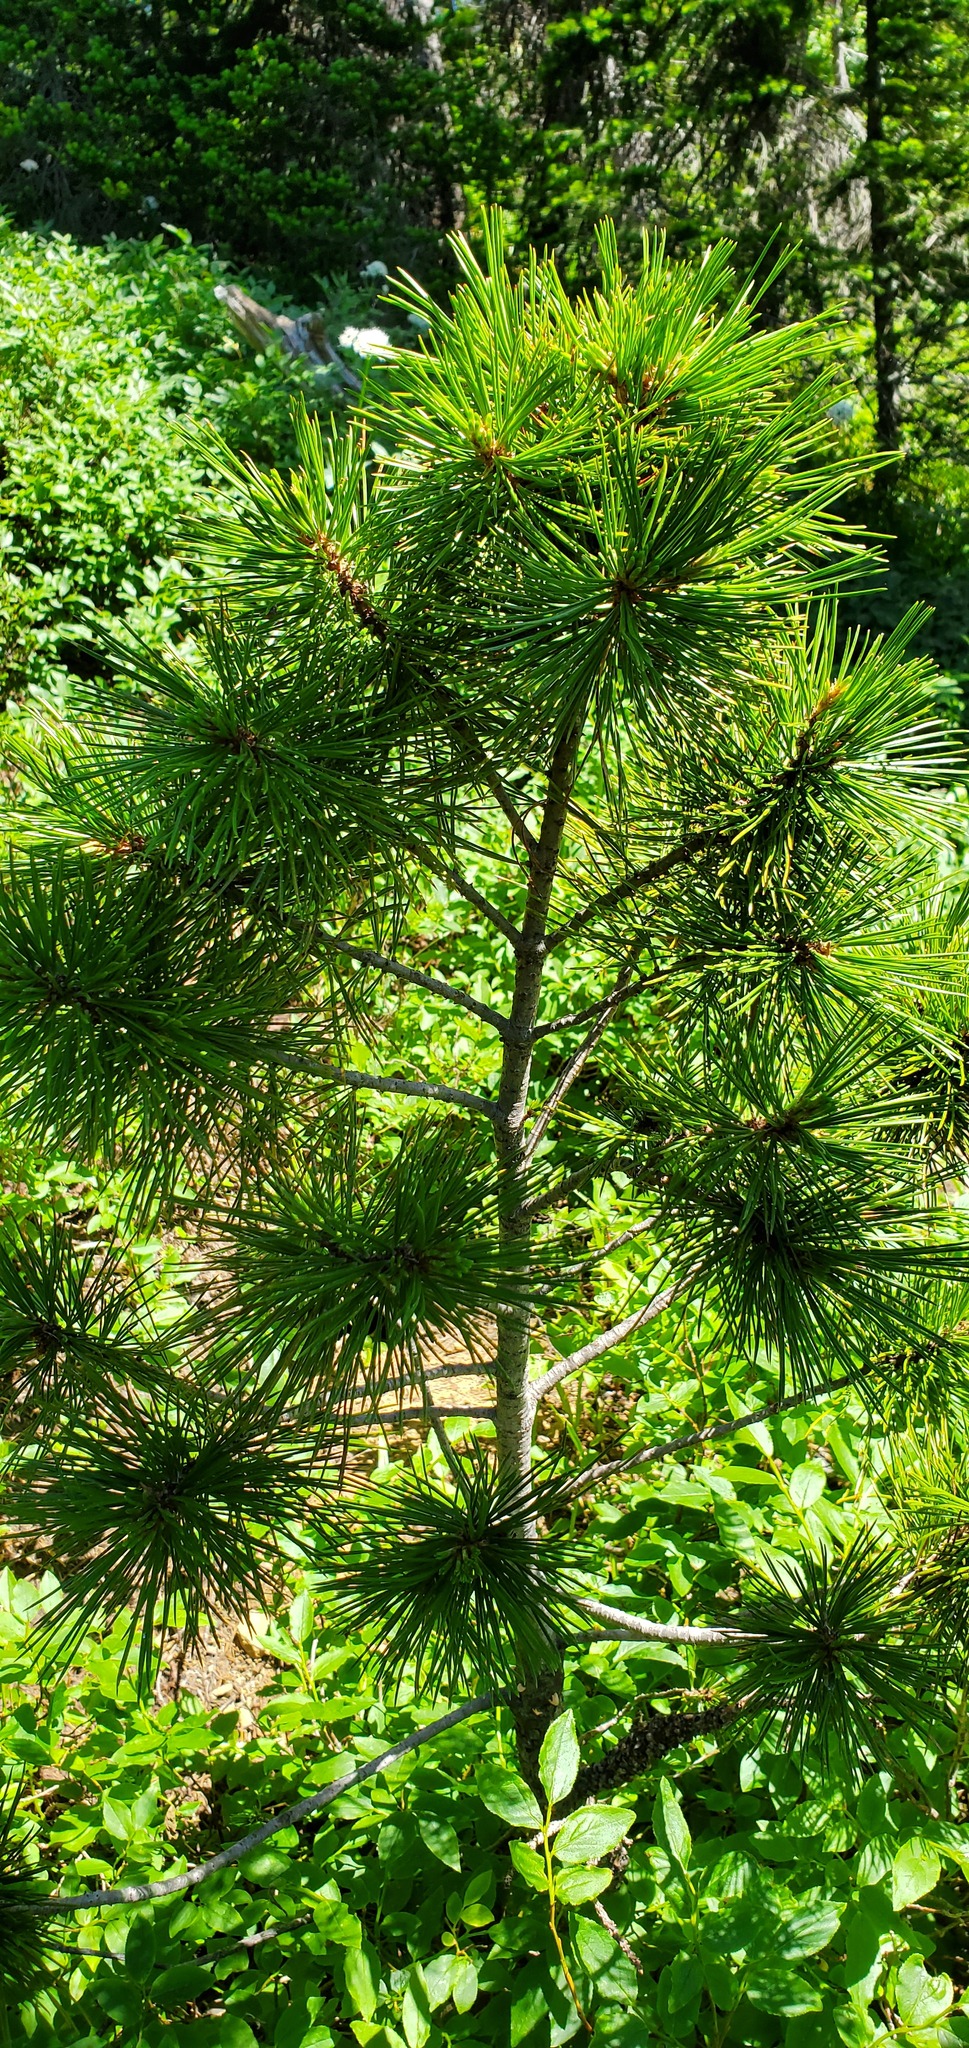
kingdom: Plantae
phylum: Tracheophyta
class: Pinopsida
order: Pinales
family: Pinaceae
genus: Pinus
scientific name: Pinus albicaulis
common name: Whitebark pine
